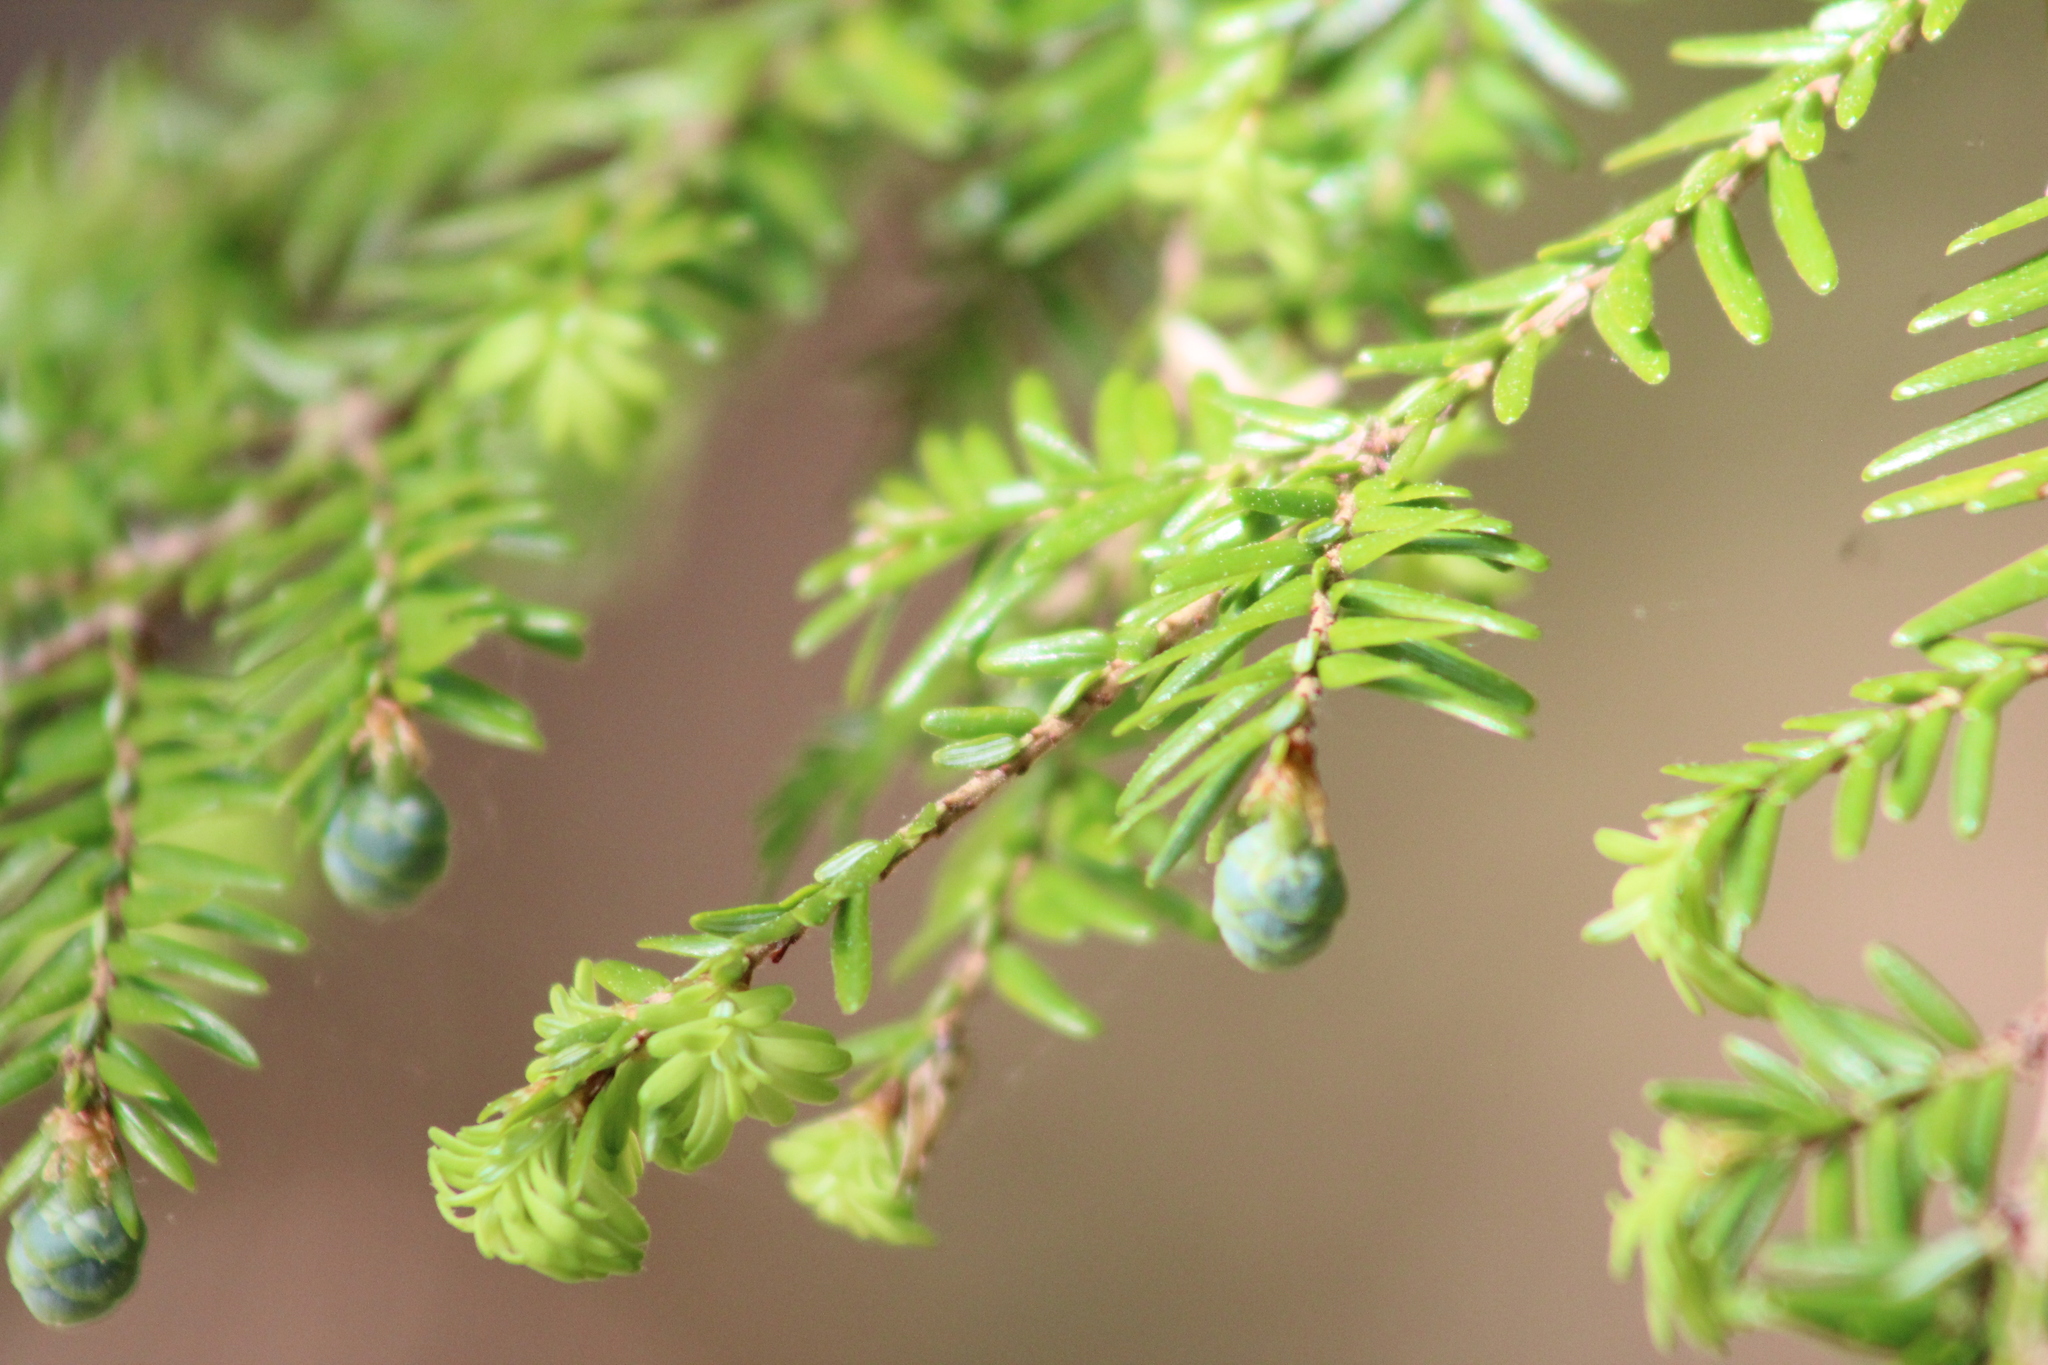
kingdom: Plantae
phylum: Tracheophyta
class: Pinopsida
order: Pinales
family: Pinaceae
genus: Tsuga
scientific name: Tsuga canadensis
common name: Eastern hemlock
